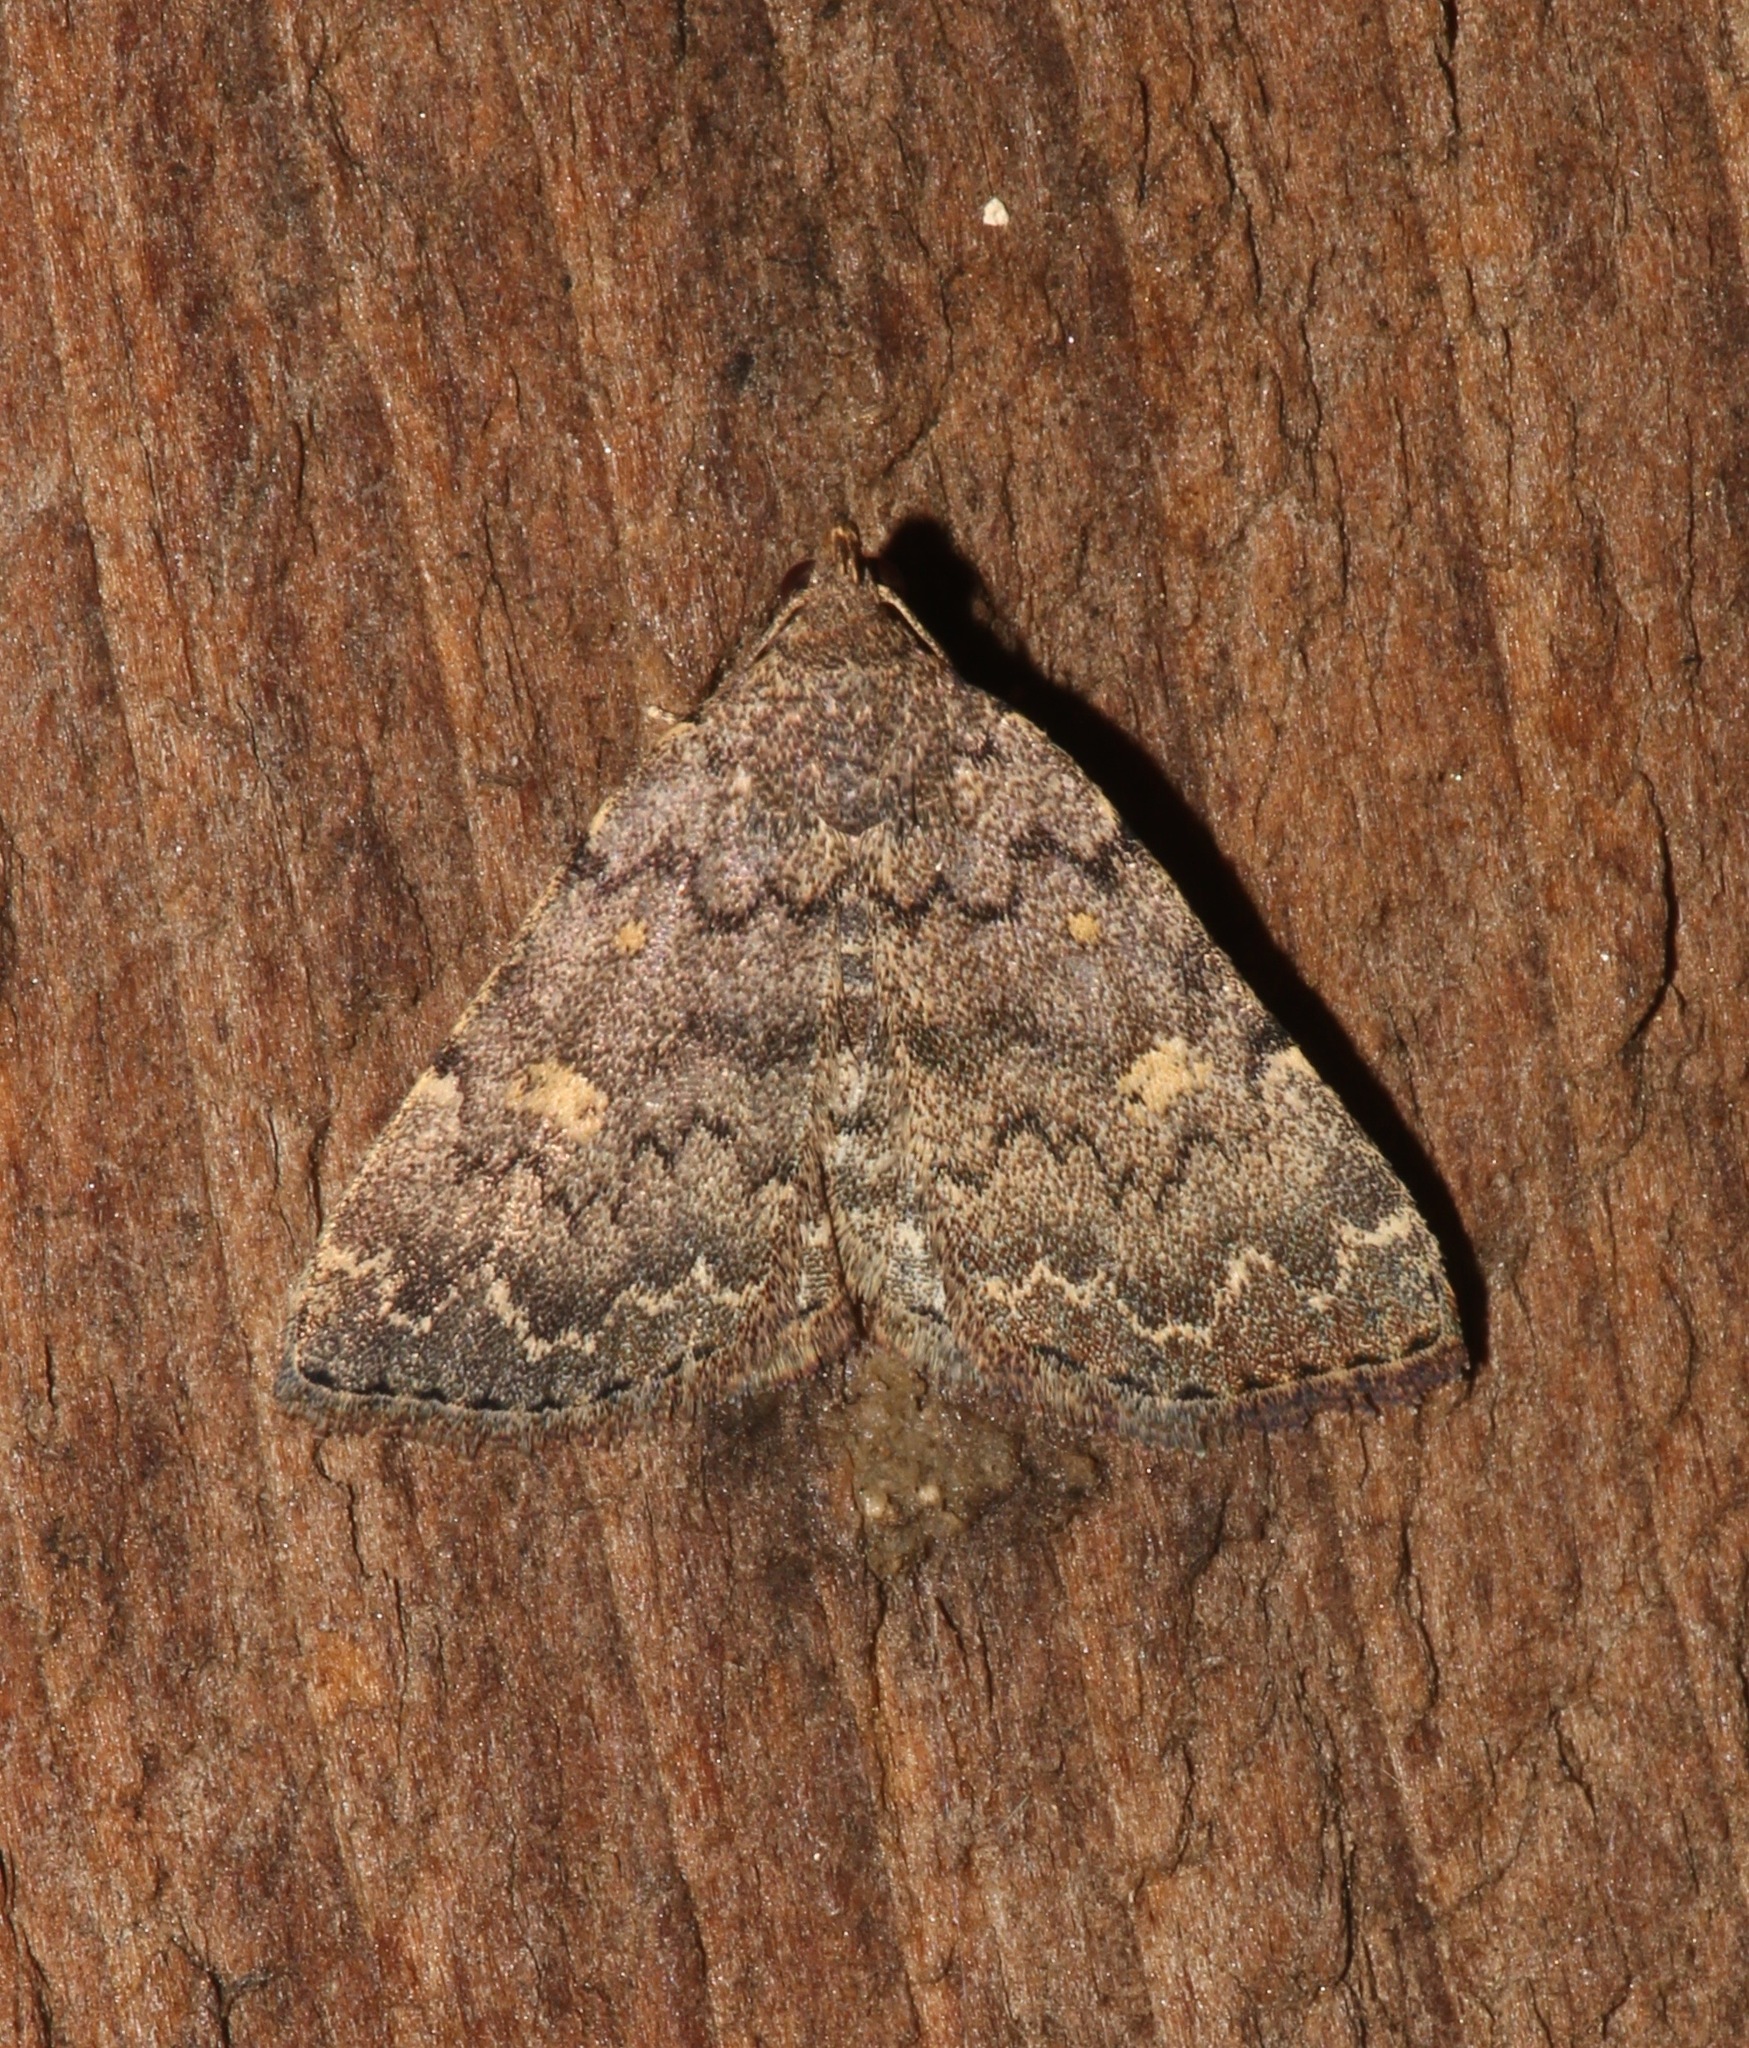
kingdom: Animalia
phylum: Arthropoda
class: Insecta
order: Lepidoptera
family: Erebidae
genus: Idia
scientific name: Idia aemula
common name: Common idia moth
